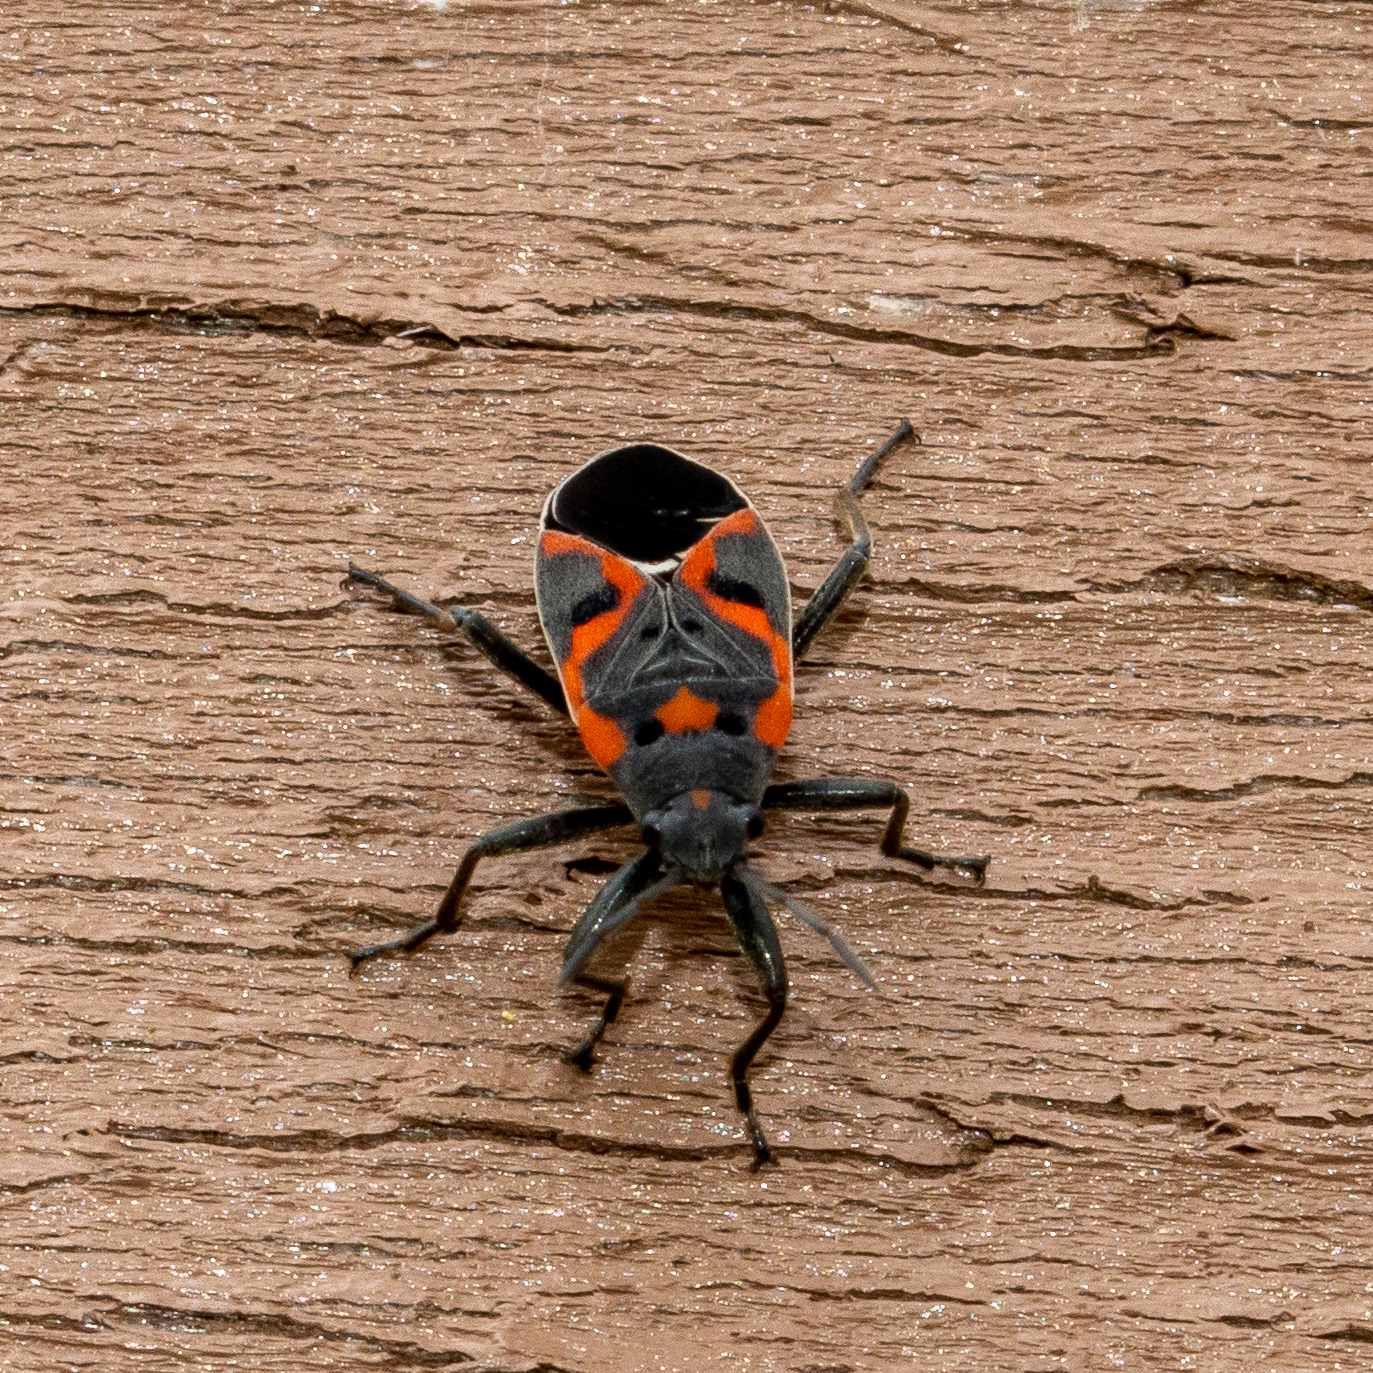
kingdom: Animalia
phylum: Arthropoda
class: Insecta
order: Hemiptera
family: Lygaeidae
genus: Lygaeus
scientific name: Lygaeus kalmii
